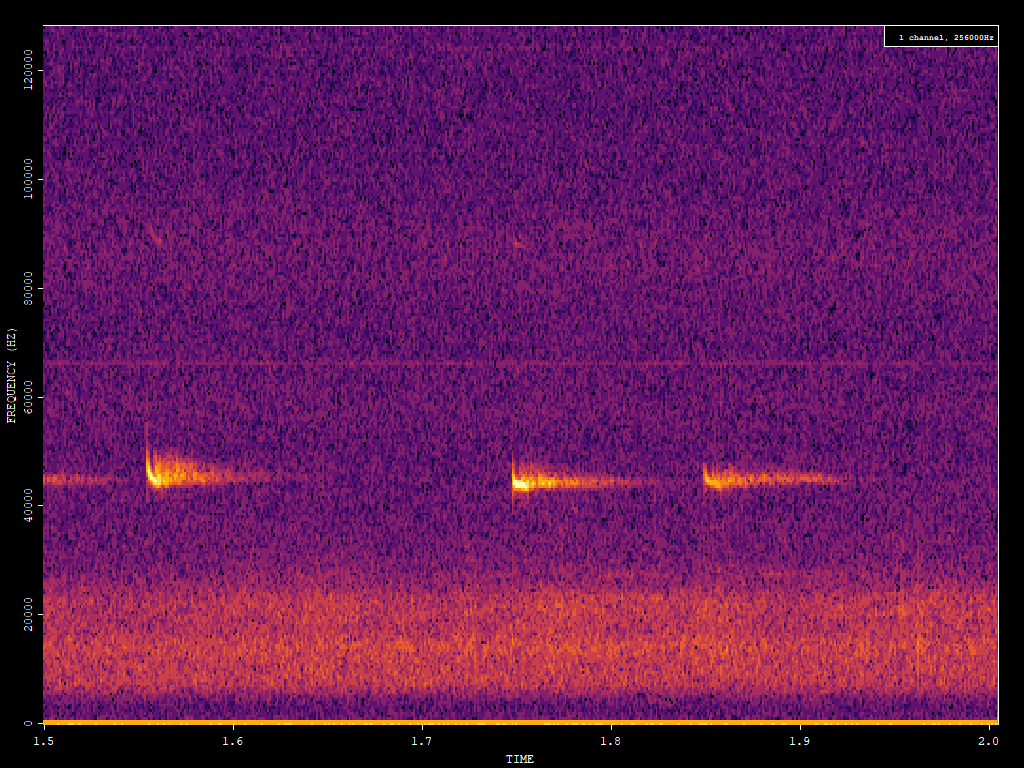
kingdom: Animalia
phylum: Chordata
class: Mammalia
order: Chiroptera
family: Vespertilionidae
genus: Pipistrellus
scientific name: Pipistrellus pipistrellus
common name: Common pipistrelle
